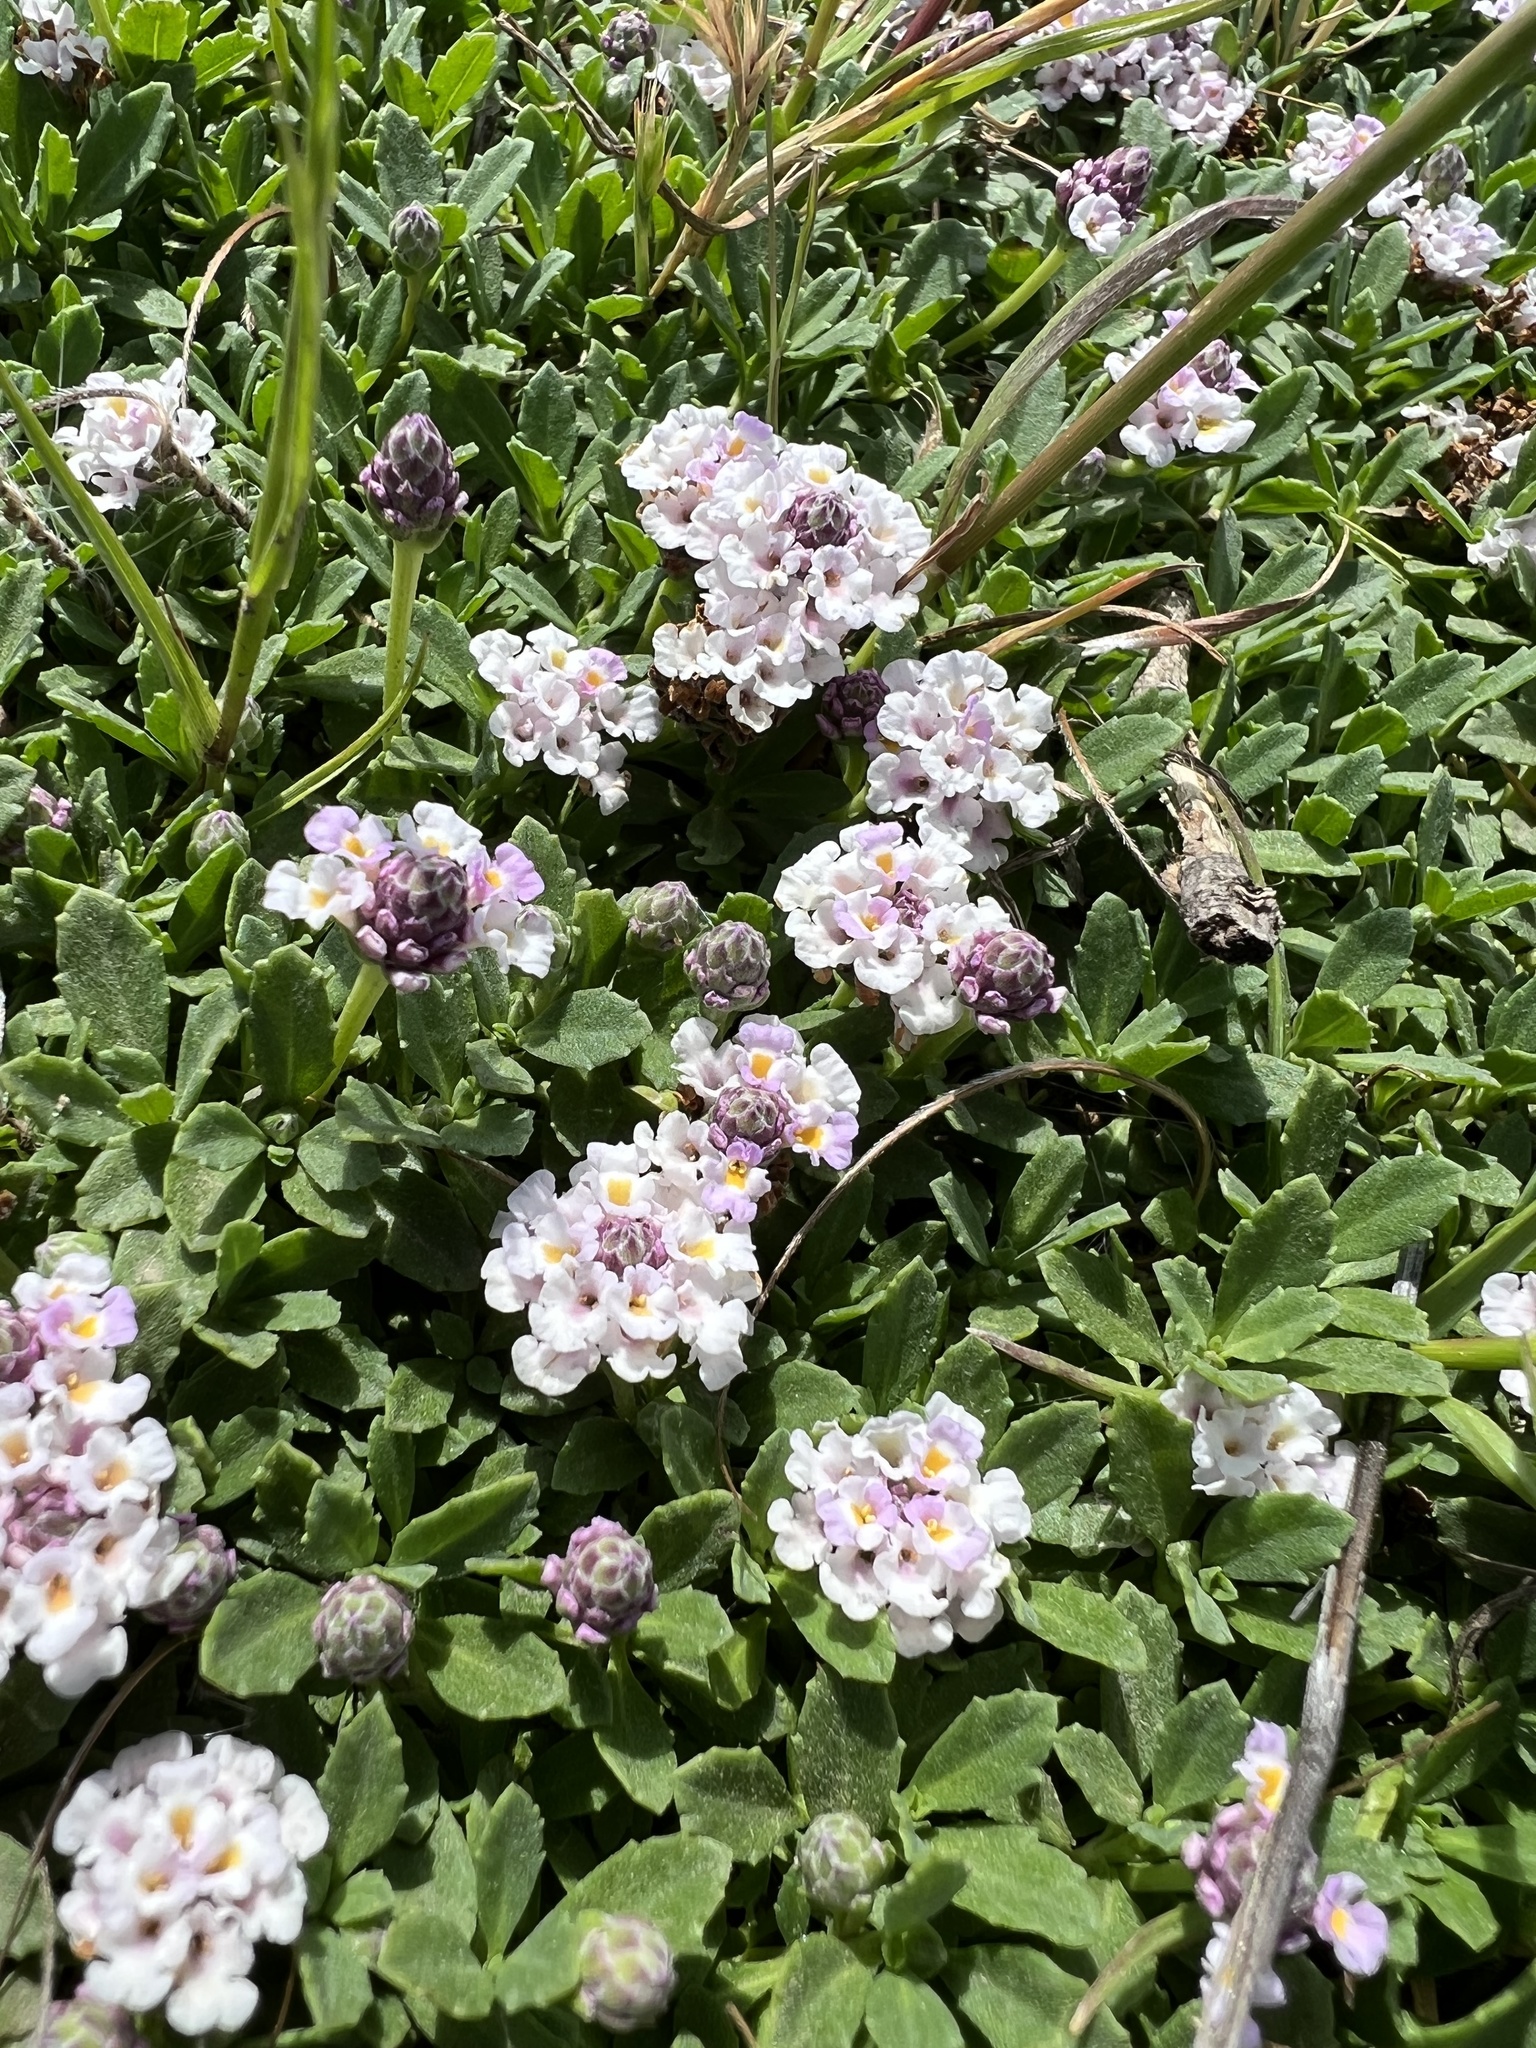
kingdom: Plantae
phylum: Tracheophyta
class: Magnoliopsida
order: Lamiales
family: Verbenaceae
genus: Phyla
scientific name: Phyla nodiflora
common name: Frogfruit
